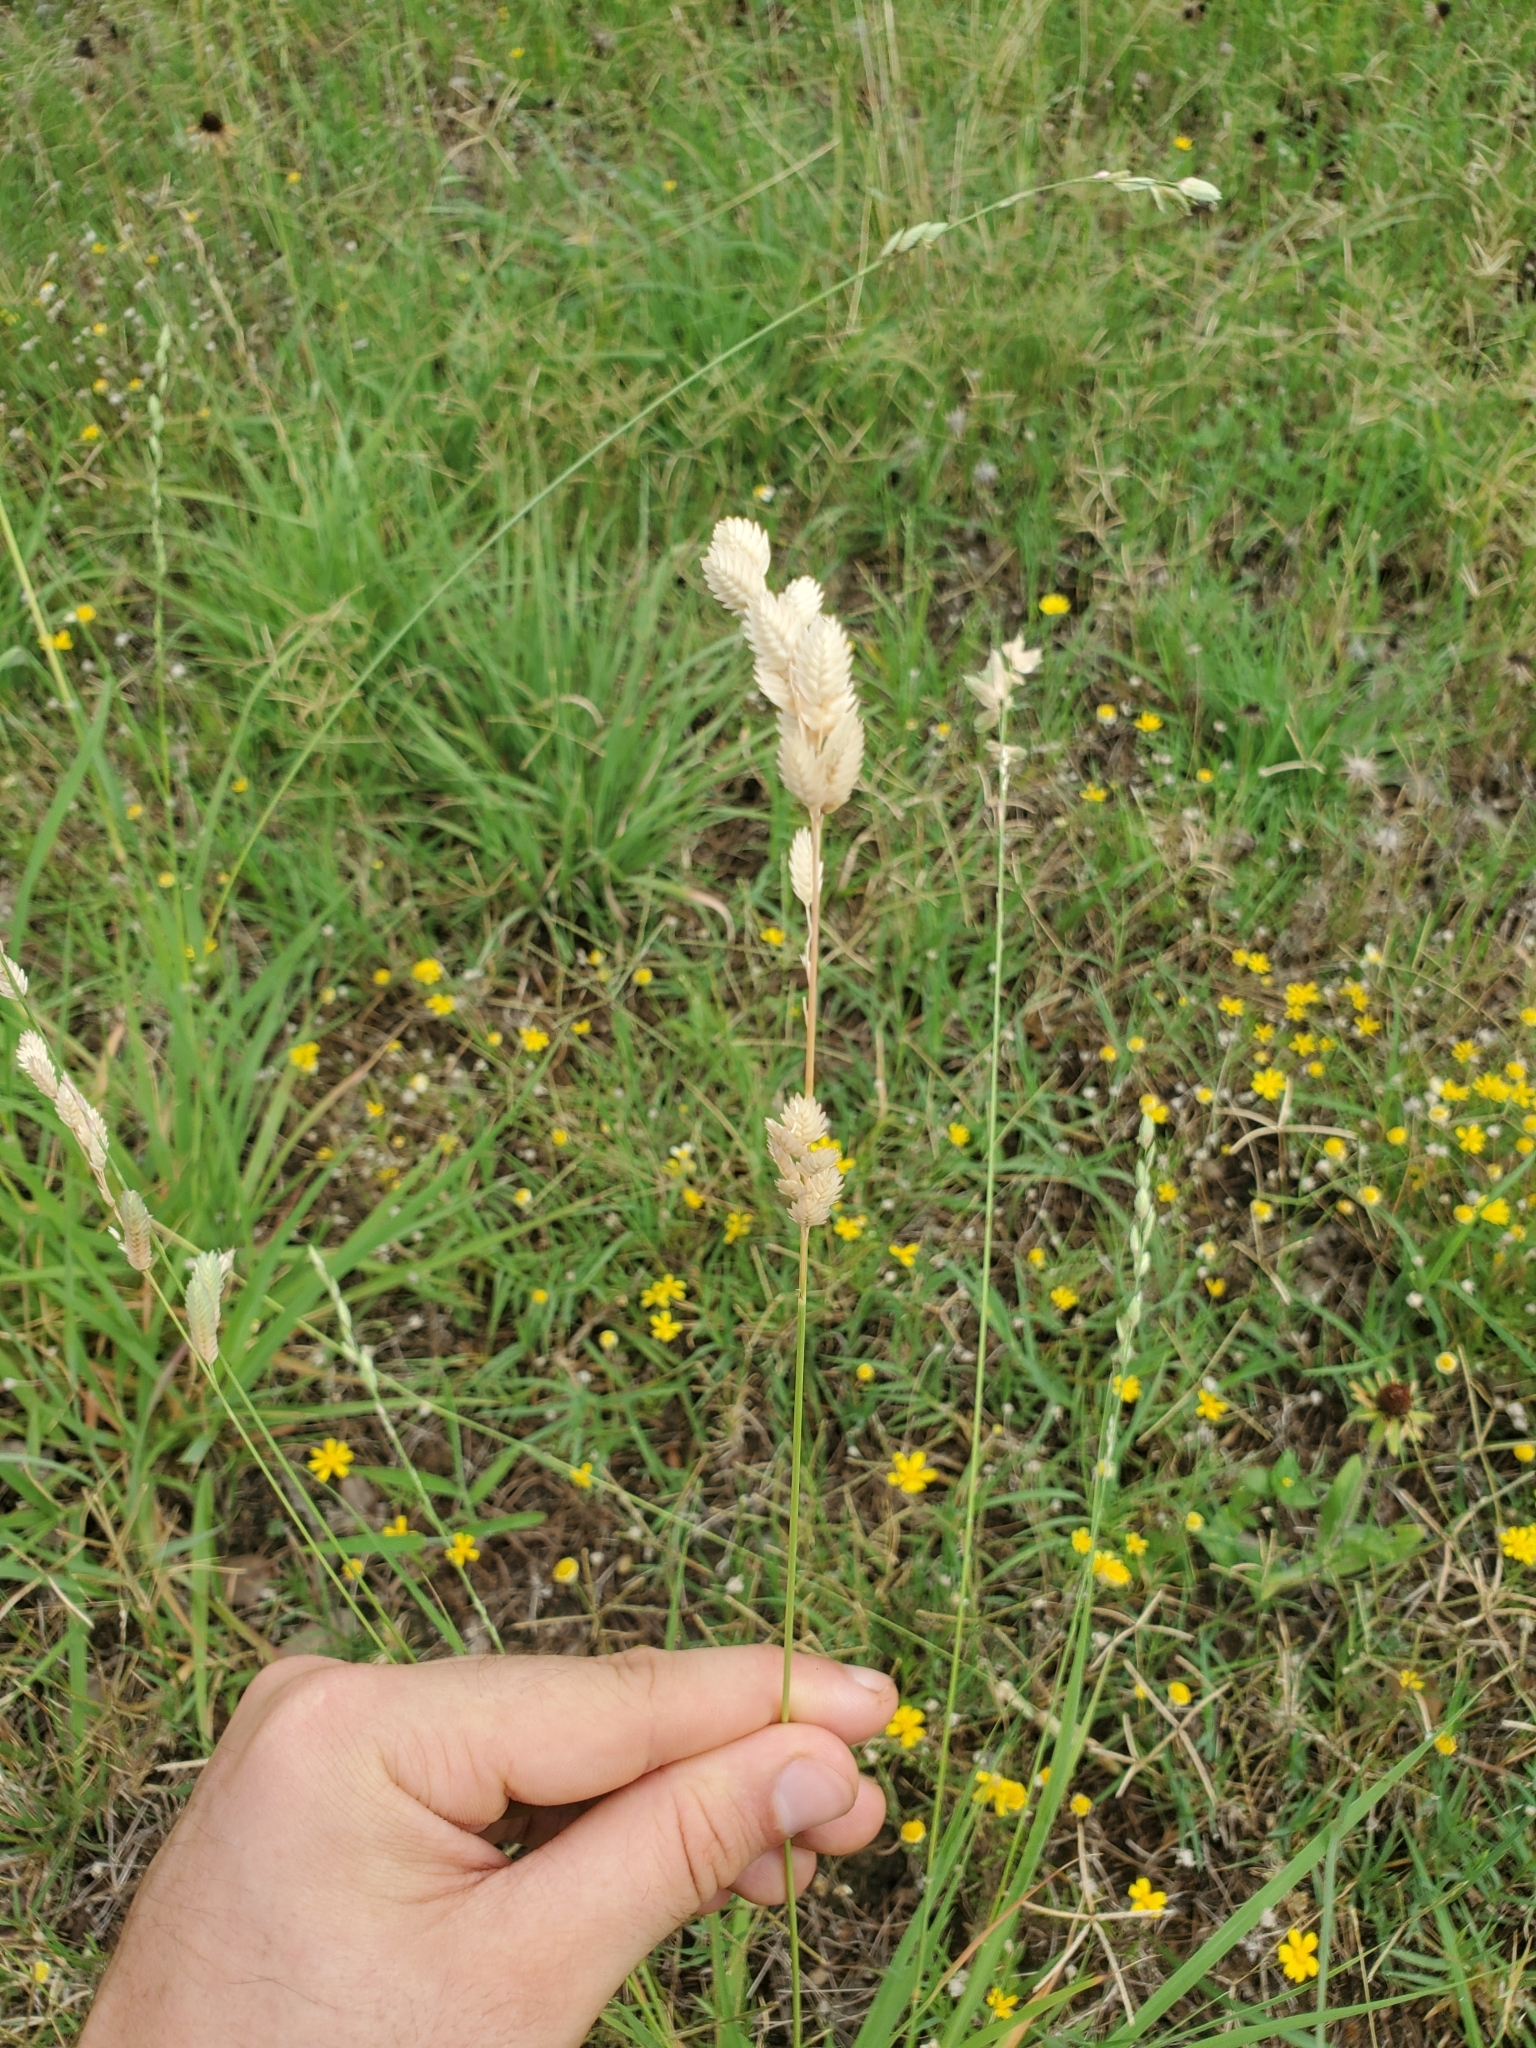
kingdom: Plantae
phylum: Tracheophyta
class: Liliopsida
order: Poales
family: Poaceae
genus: Eragrostis
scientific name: Eragrostis superba
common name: Wilman lovegrass
